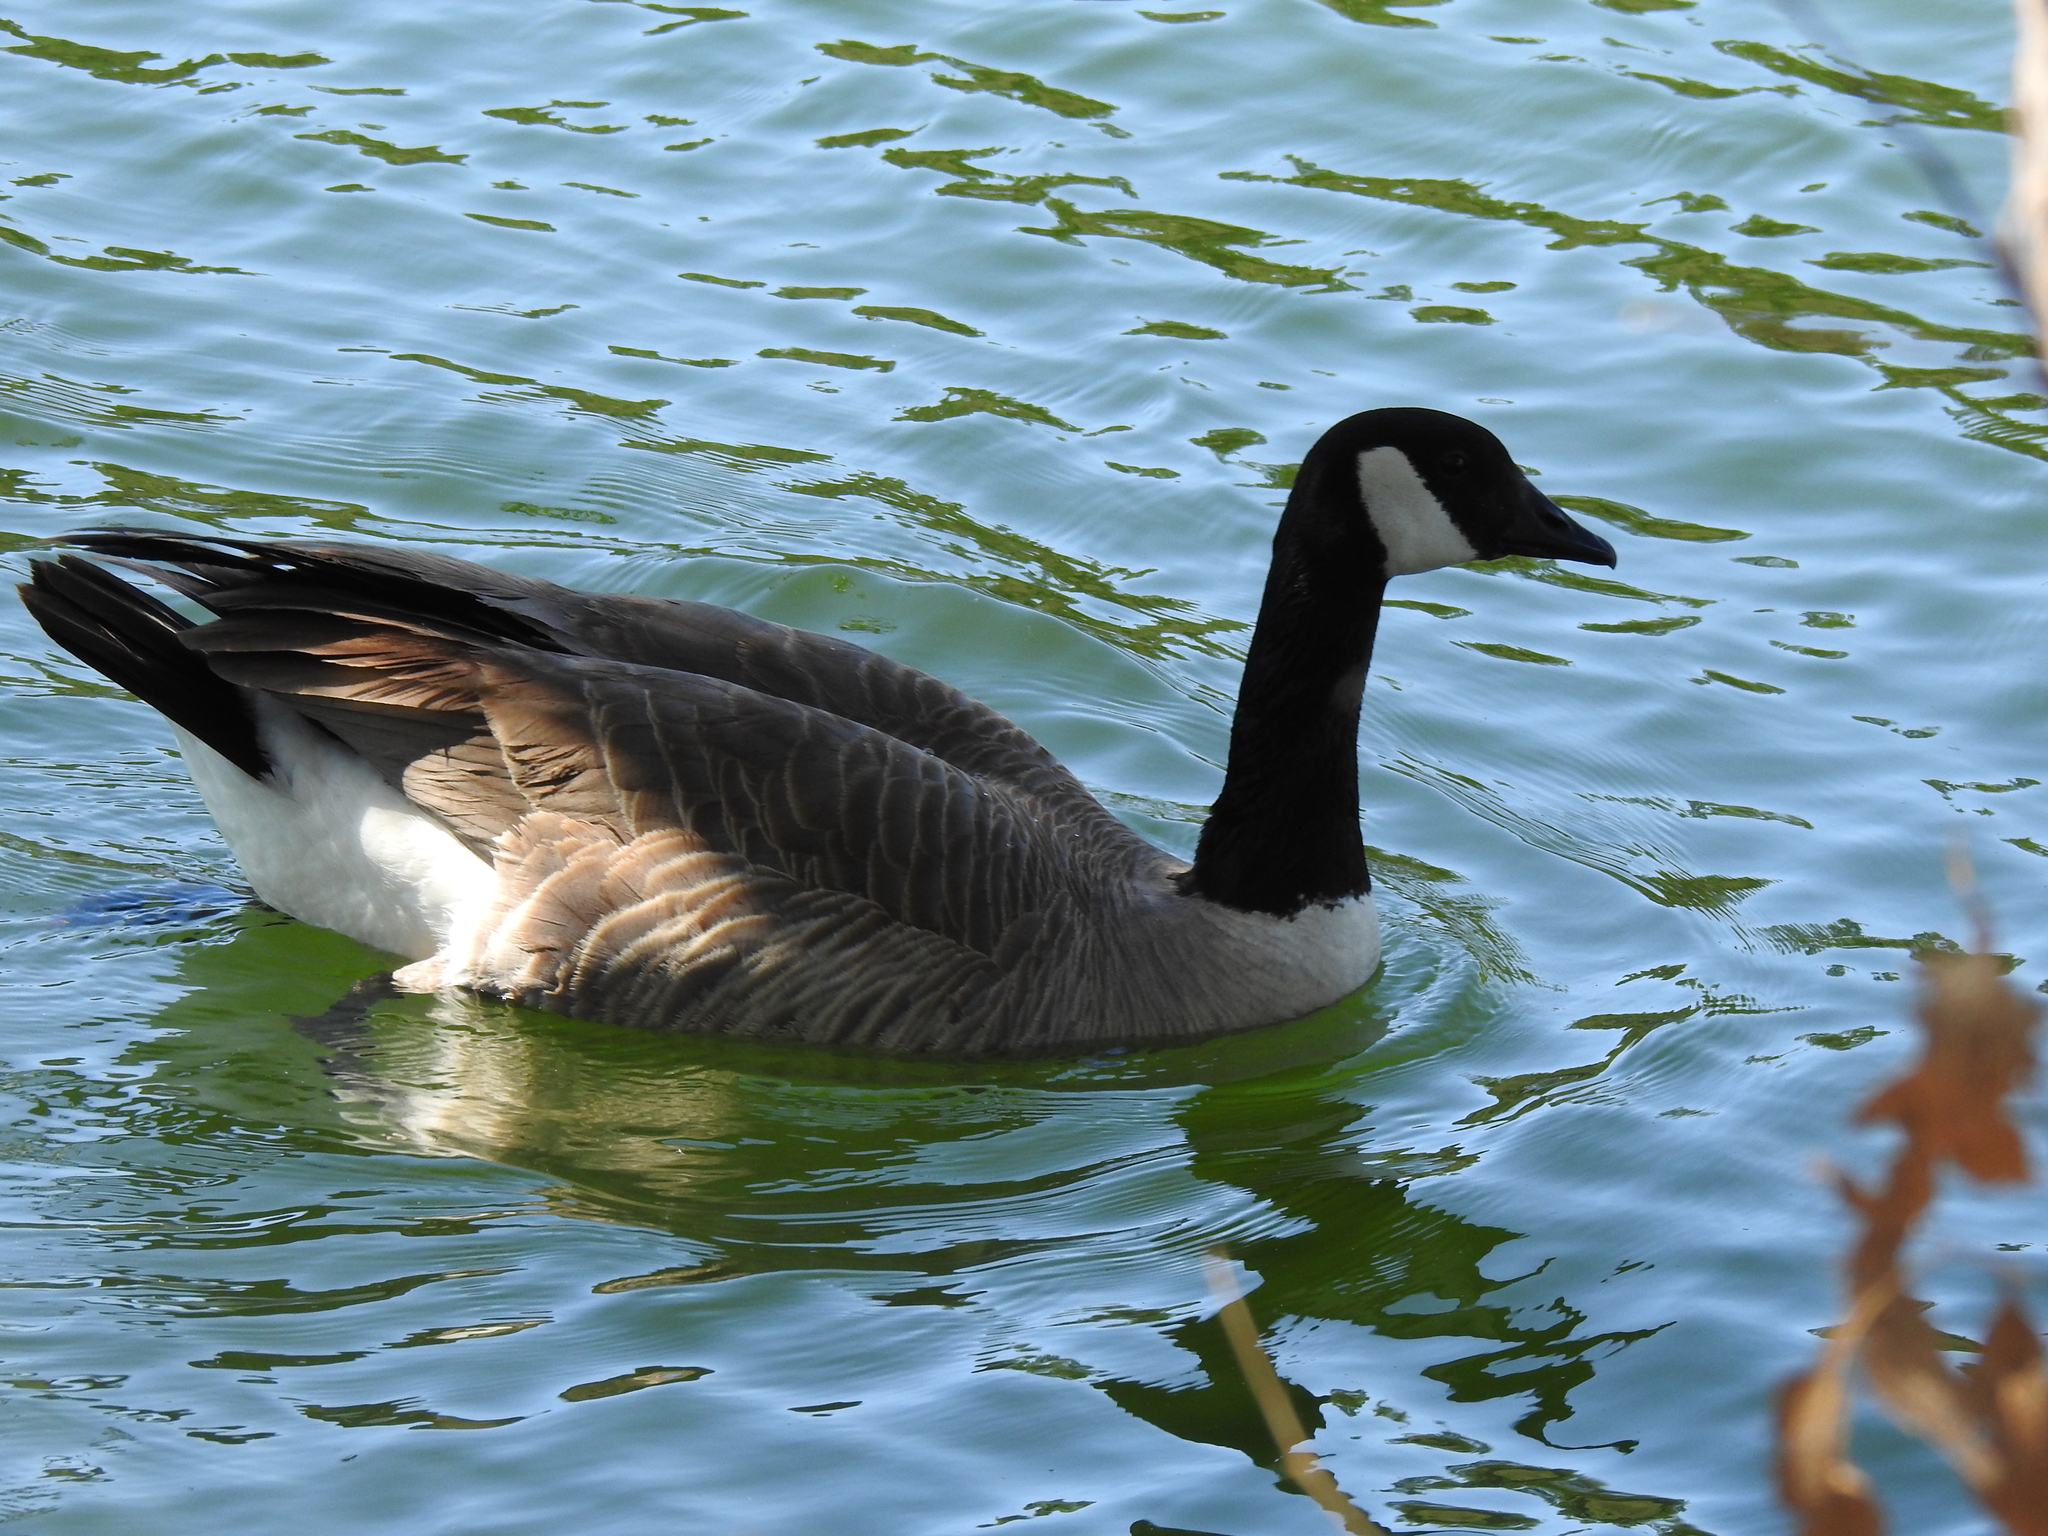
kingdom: Animalia
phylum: Chordata
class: Aves
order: Anseriformes
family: Anatidae
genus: Branta
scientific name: Branta canadensis
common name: Canada goose
